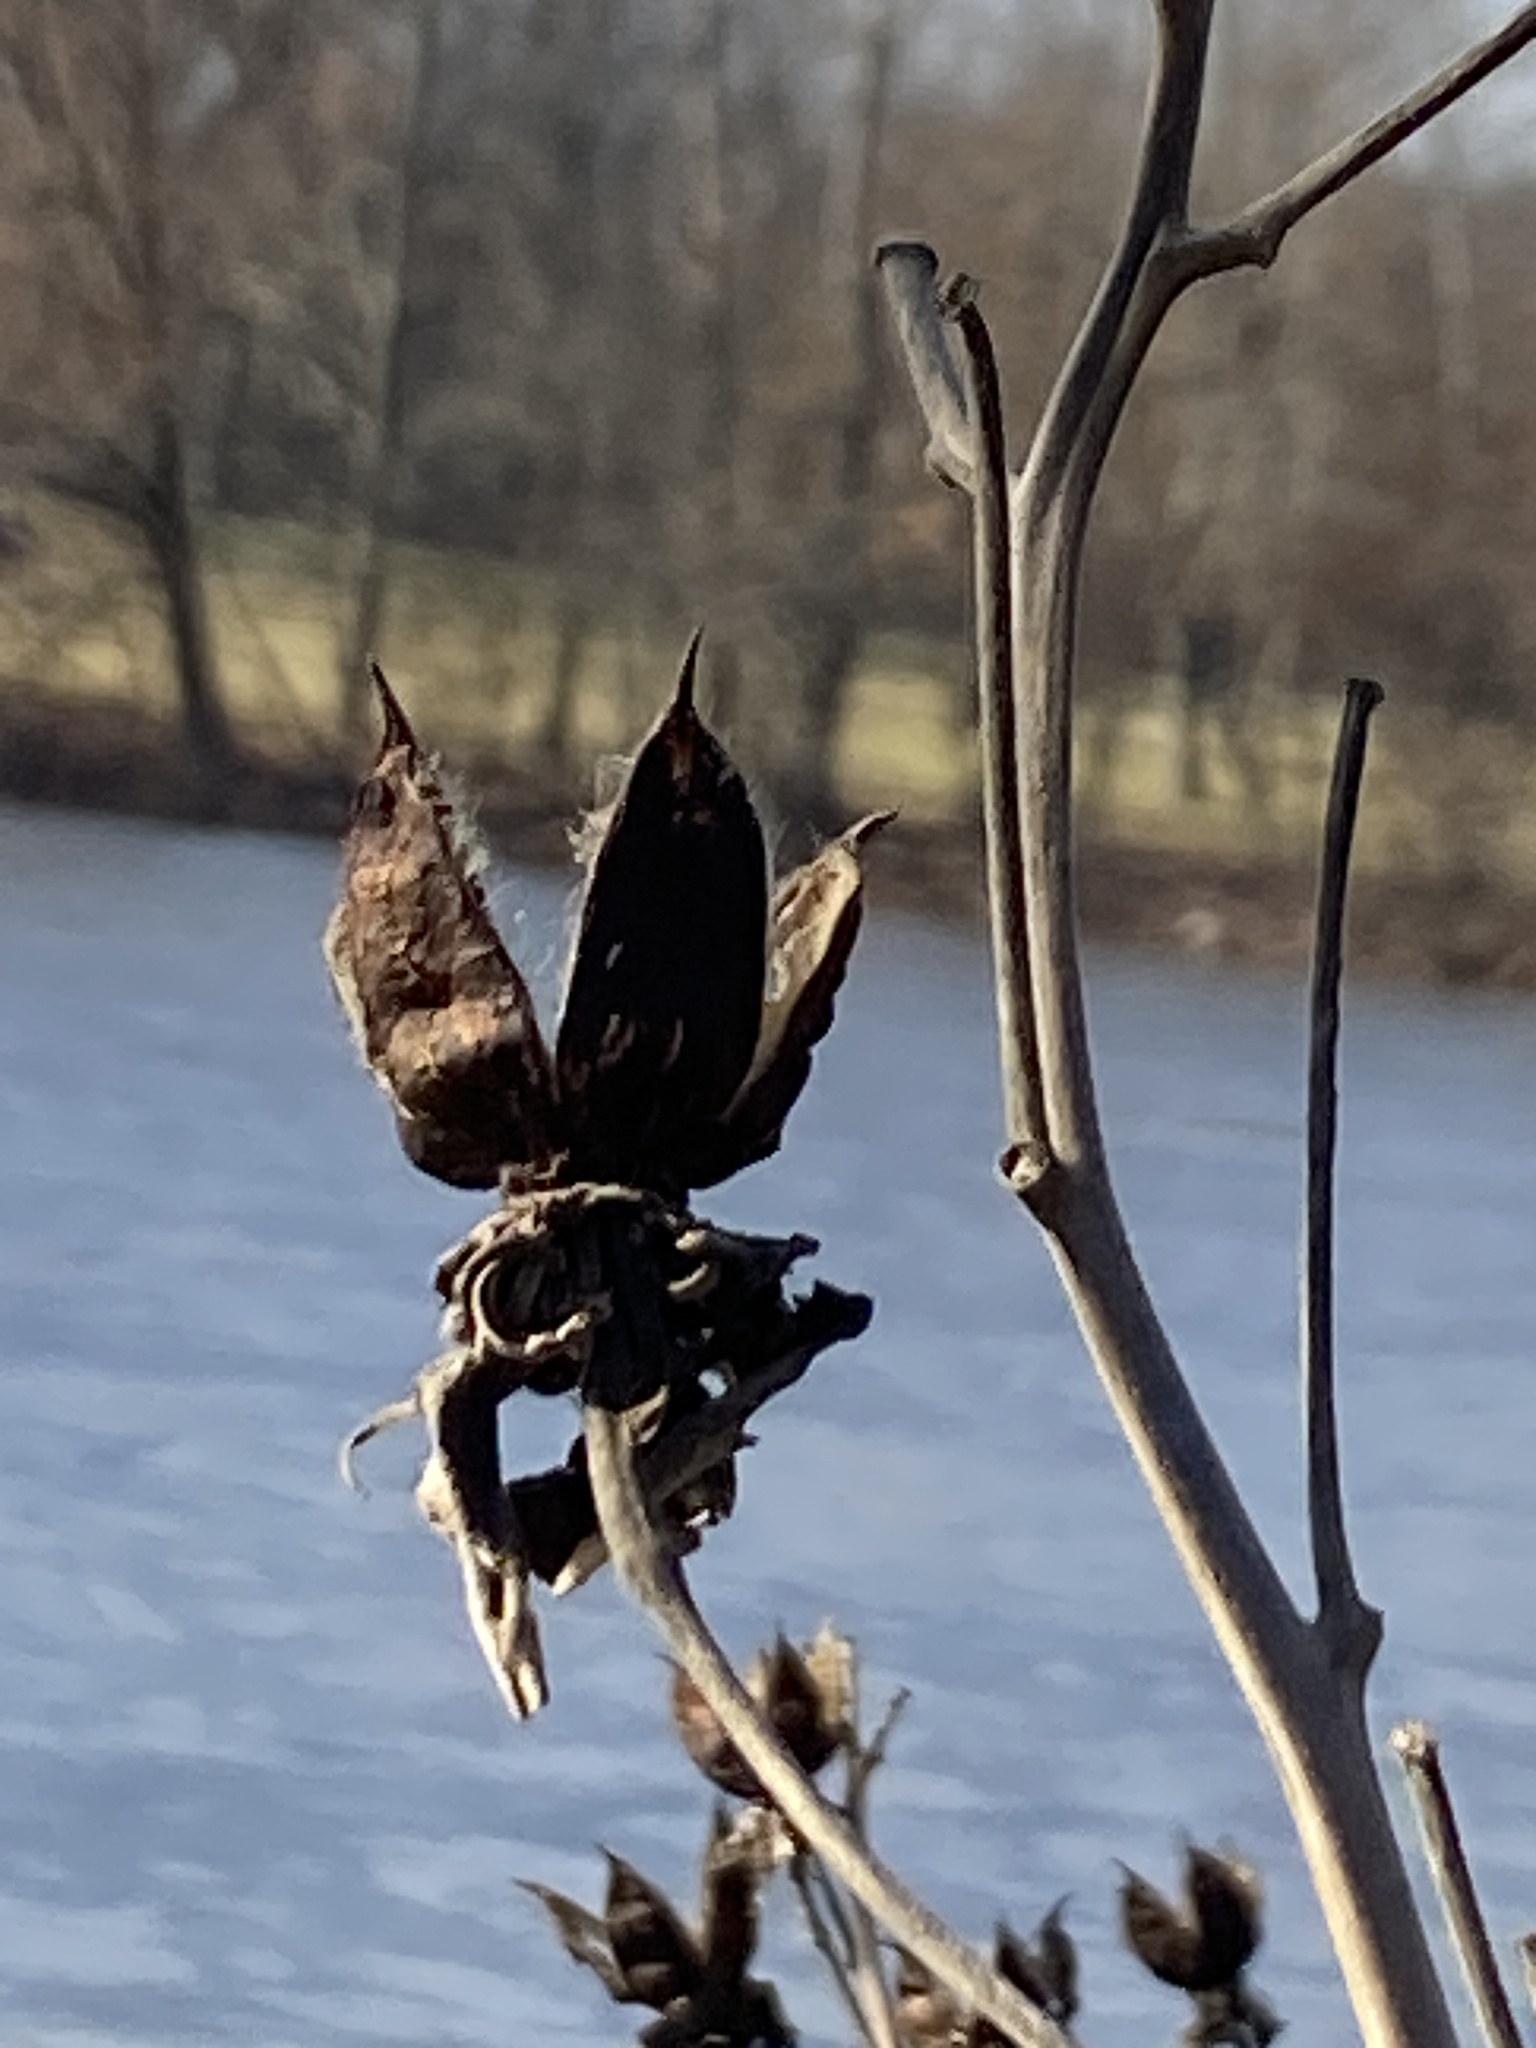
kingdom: Plantae
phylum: Tracheophyta
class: Magnoliopsida
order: Malvales
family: Malvaceae
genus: Hibiscus
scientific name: Hibiscus moscheutos
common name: Common rose-mallow
